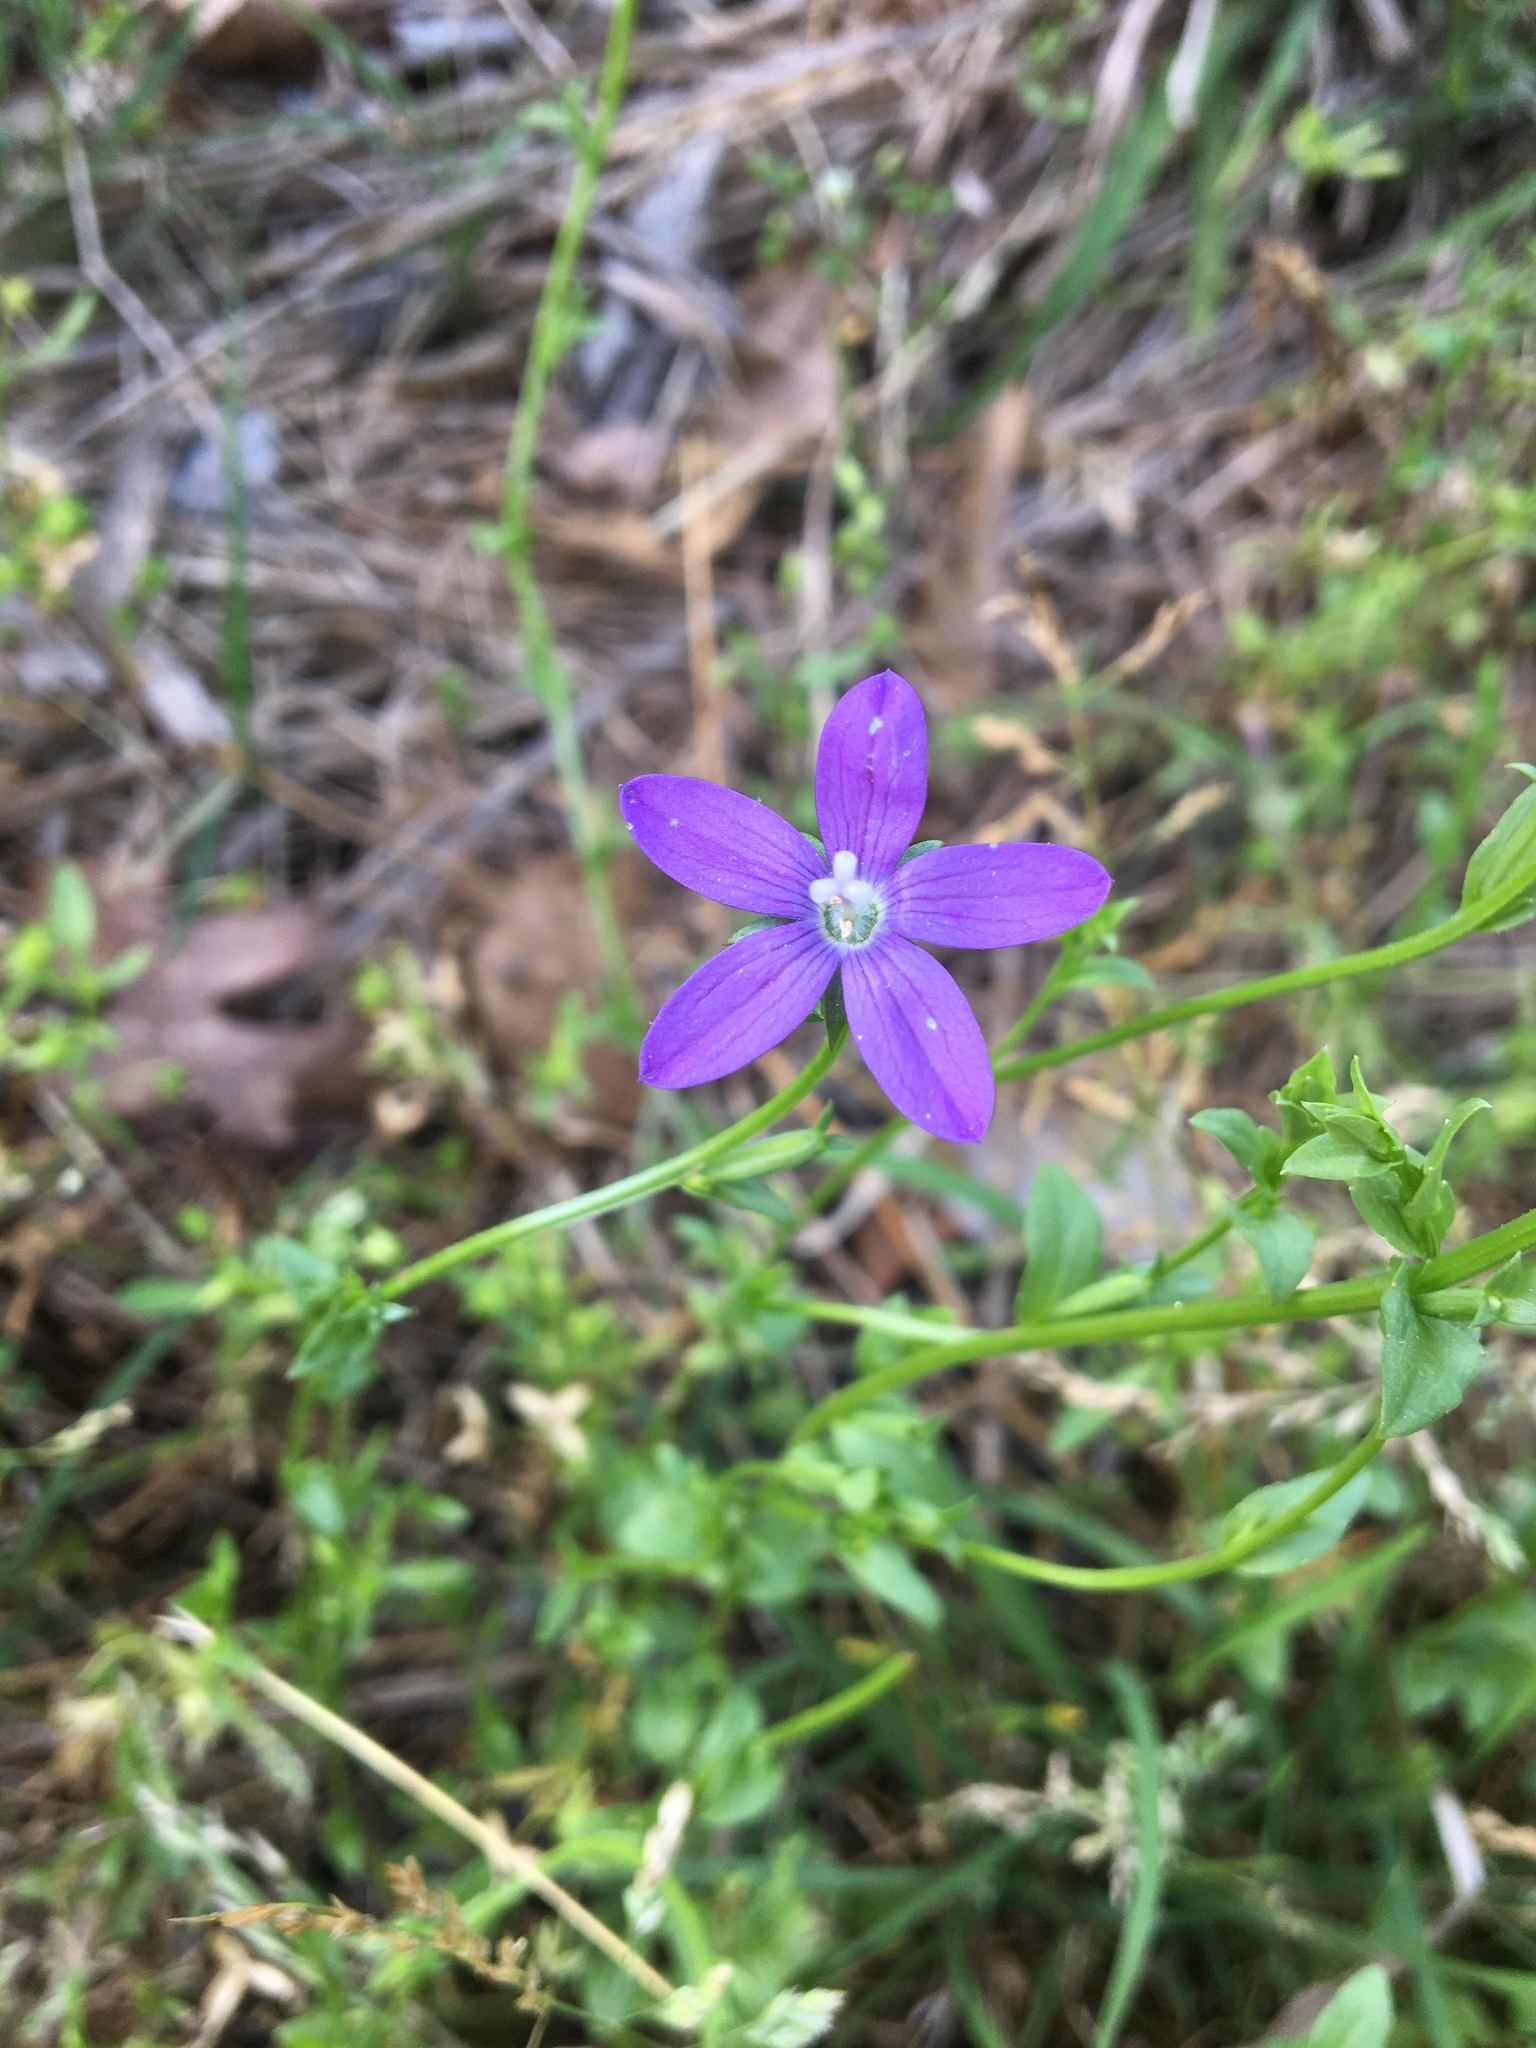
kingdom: Plantae
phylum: Tracheophyta
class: Magnoliopsida
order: Asterales
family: Campanulaceae
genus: Triodanis
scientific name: Triodanis biflora
